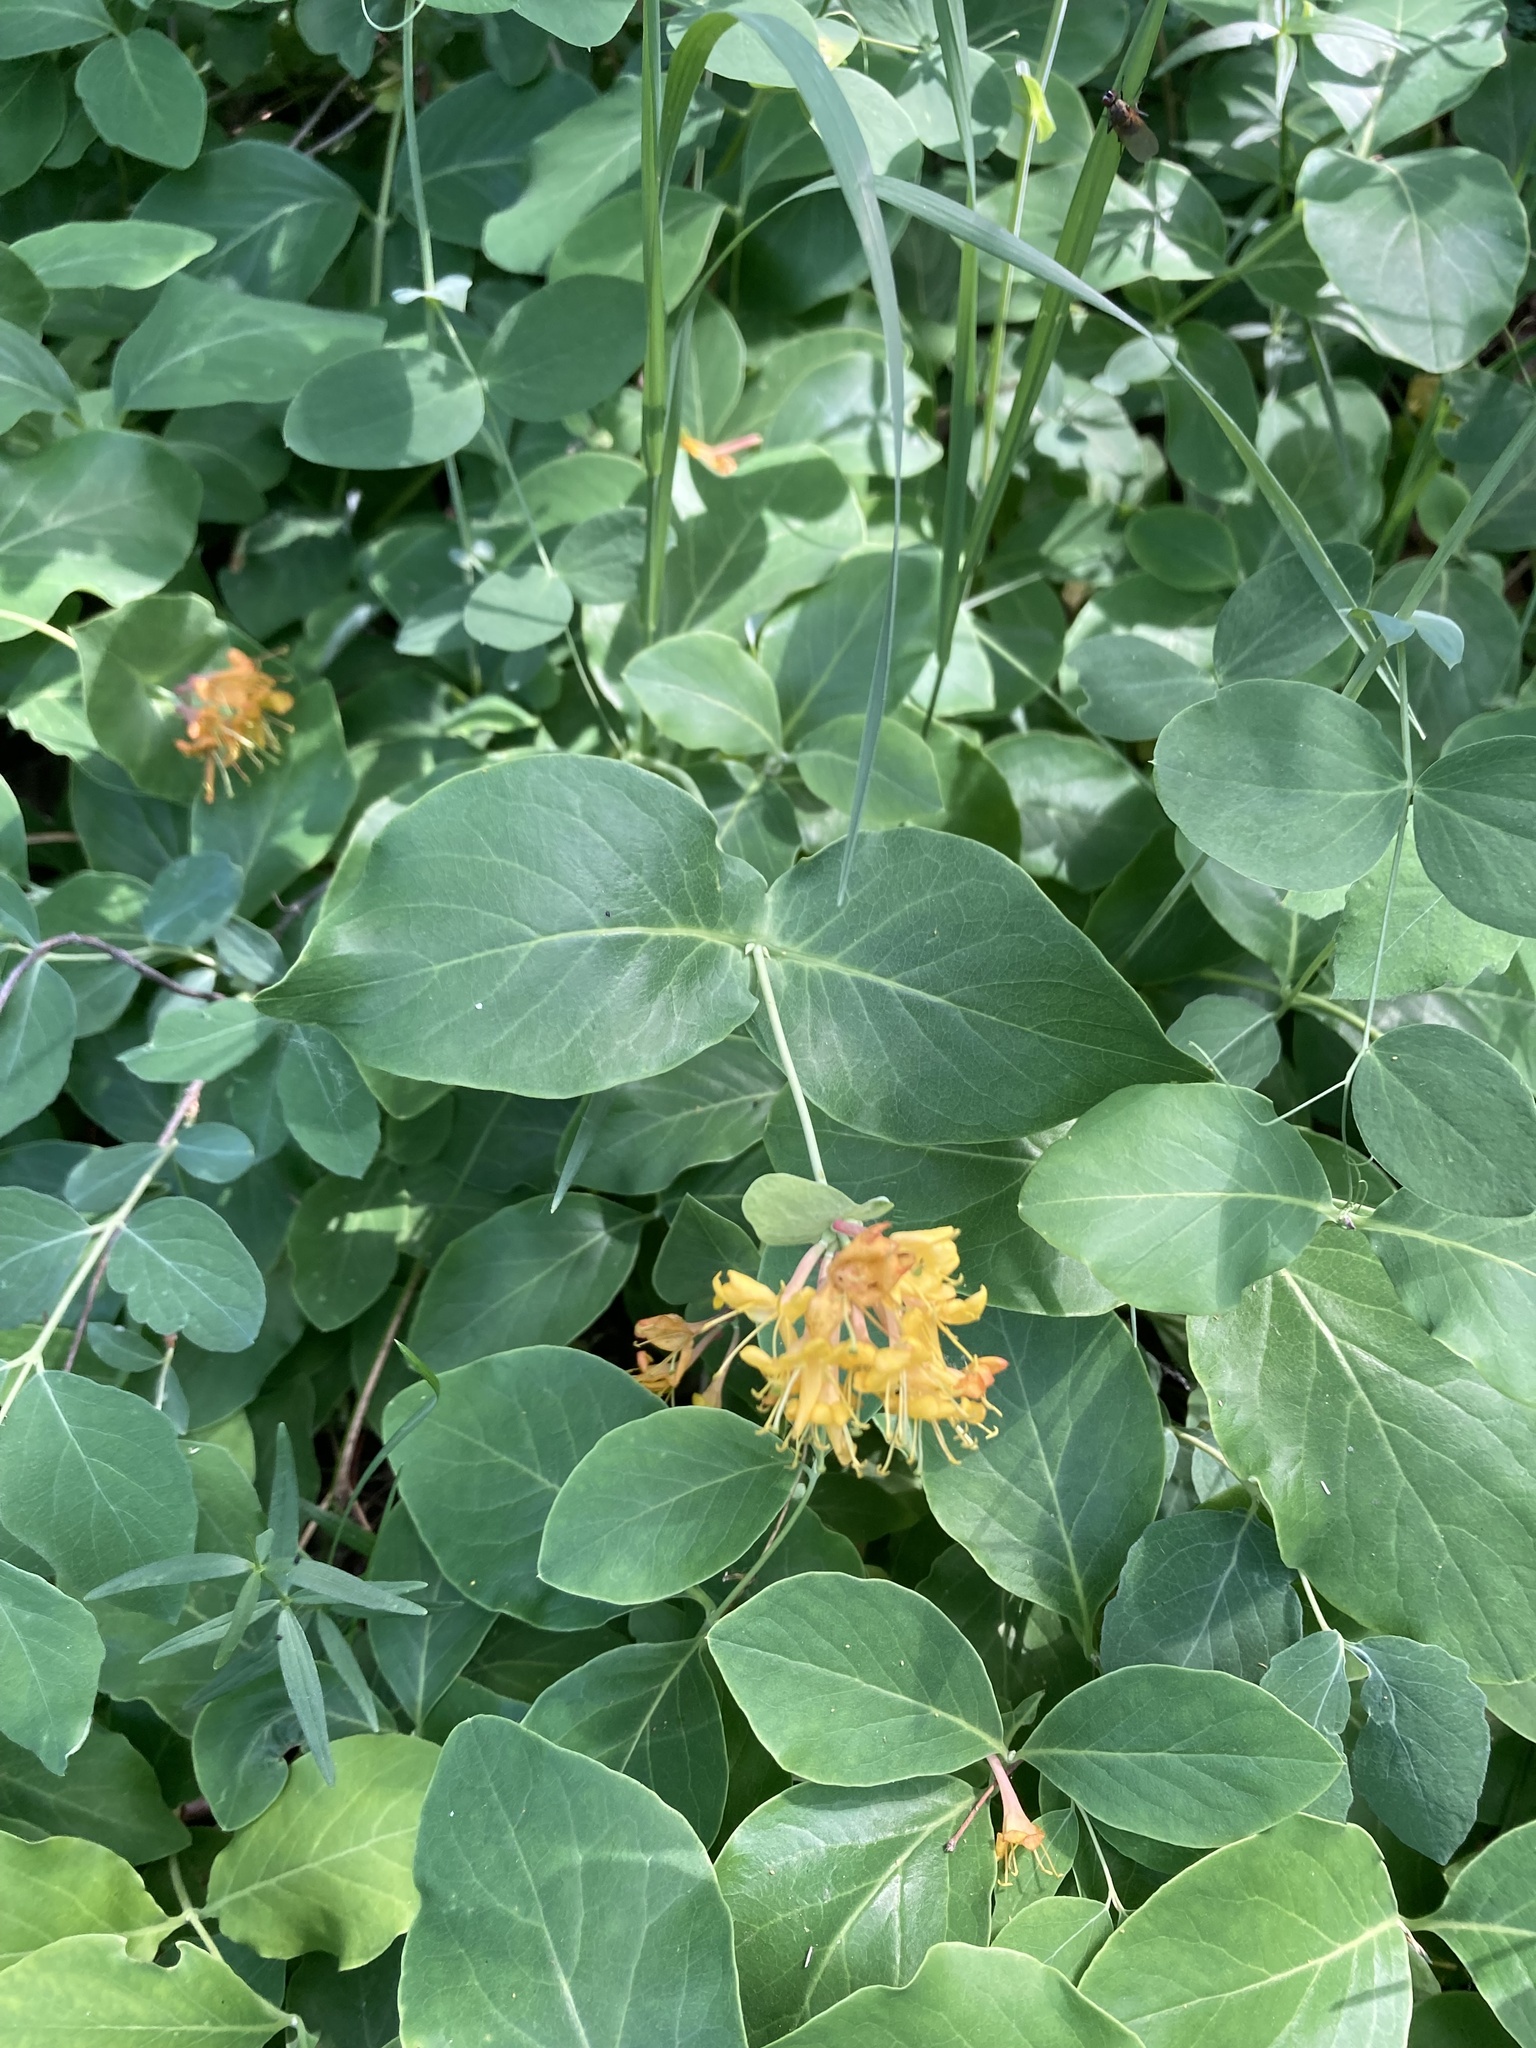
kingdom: Plantae
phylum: Tracheophyta
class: Magnoliopsida
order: Dipsacales
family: Caprifoliaceae
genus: Lonicera
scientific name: Lonicera dioica
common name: Limber honeysuckle
